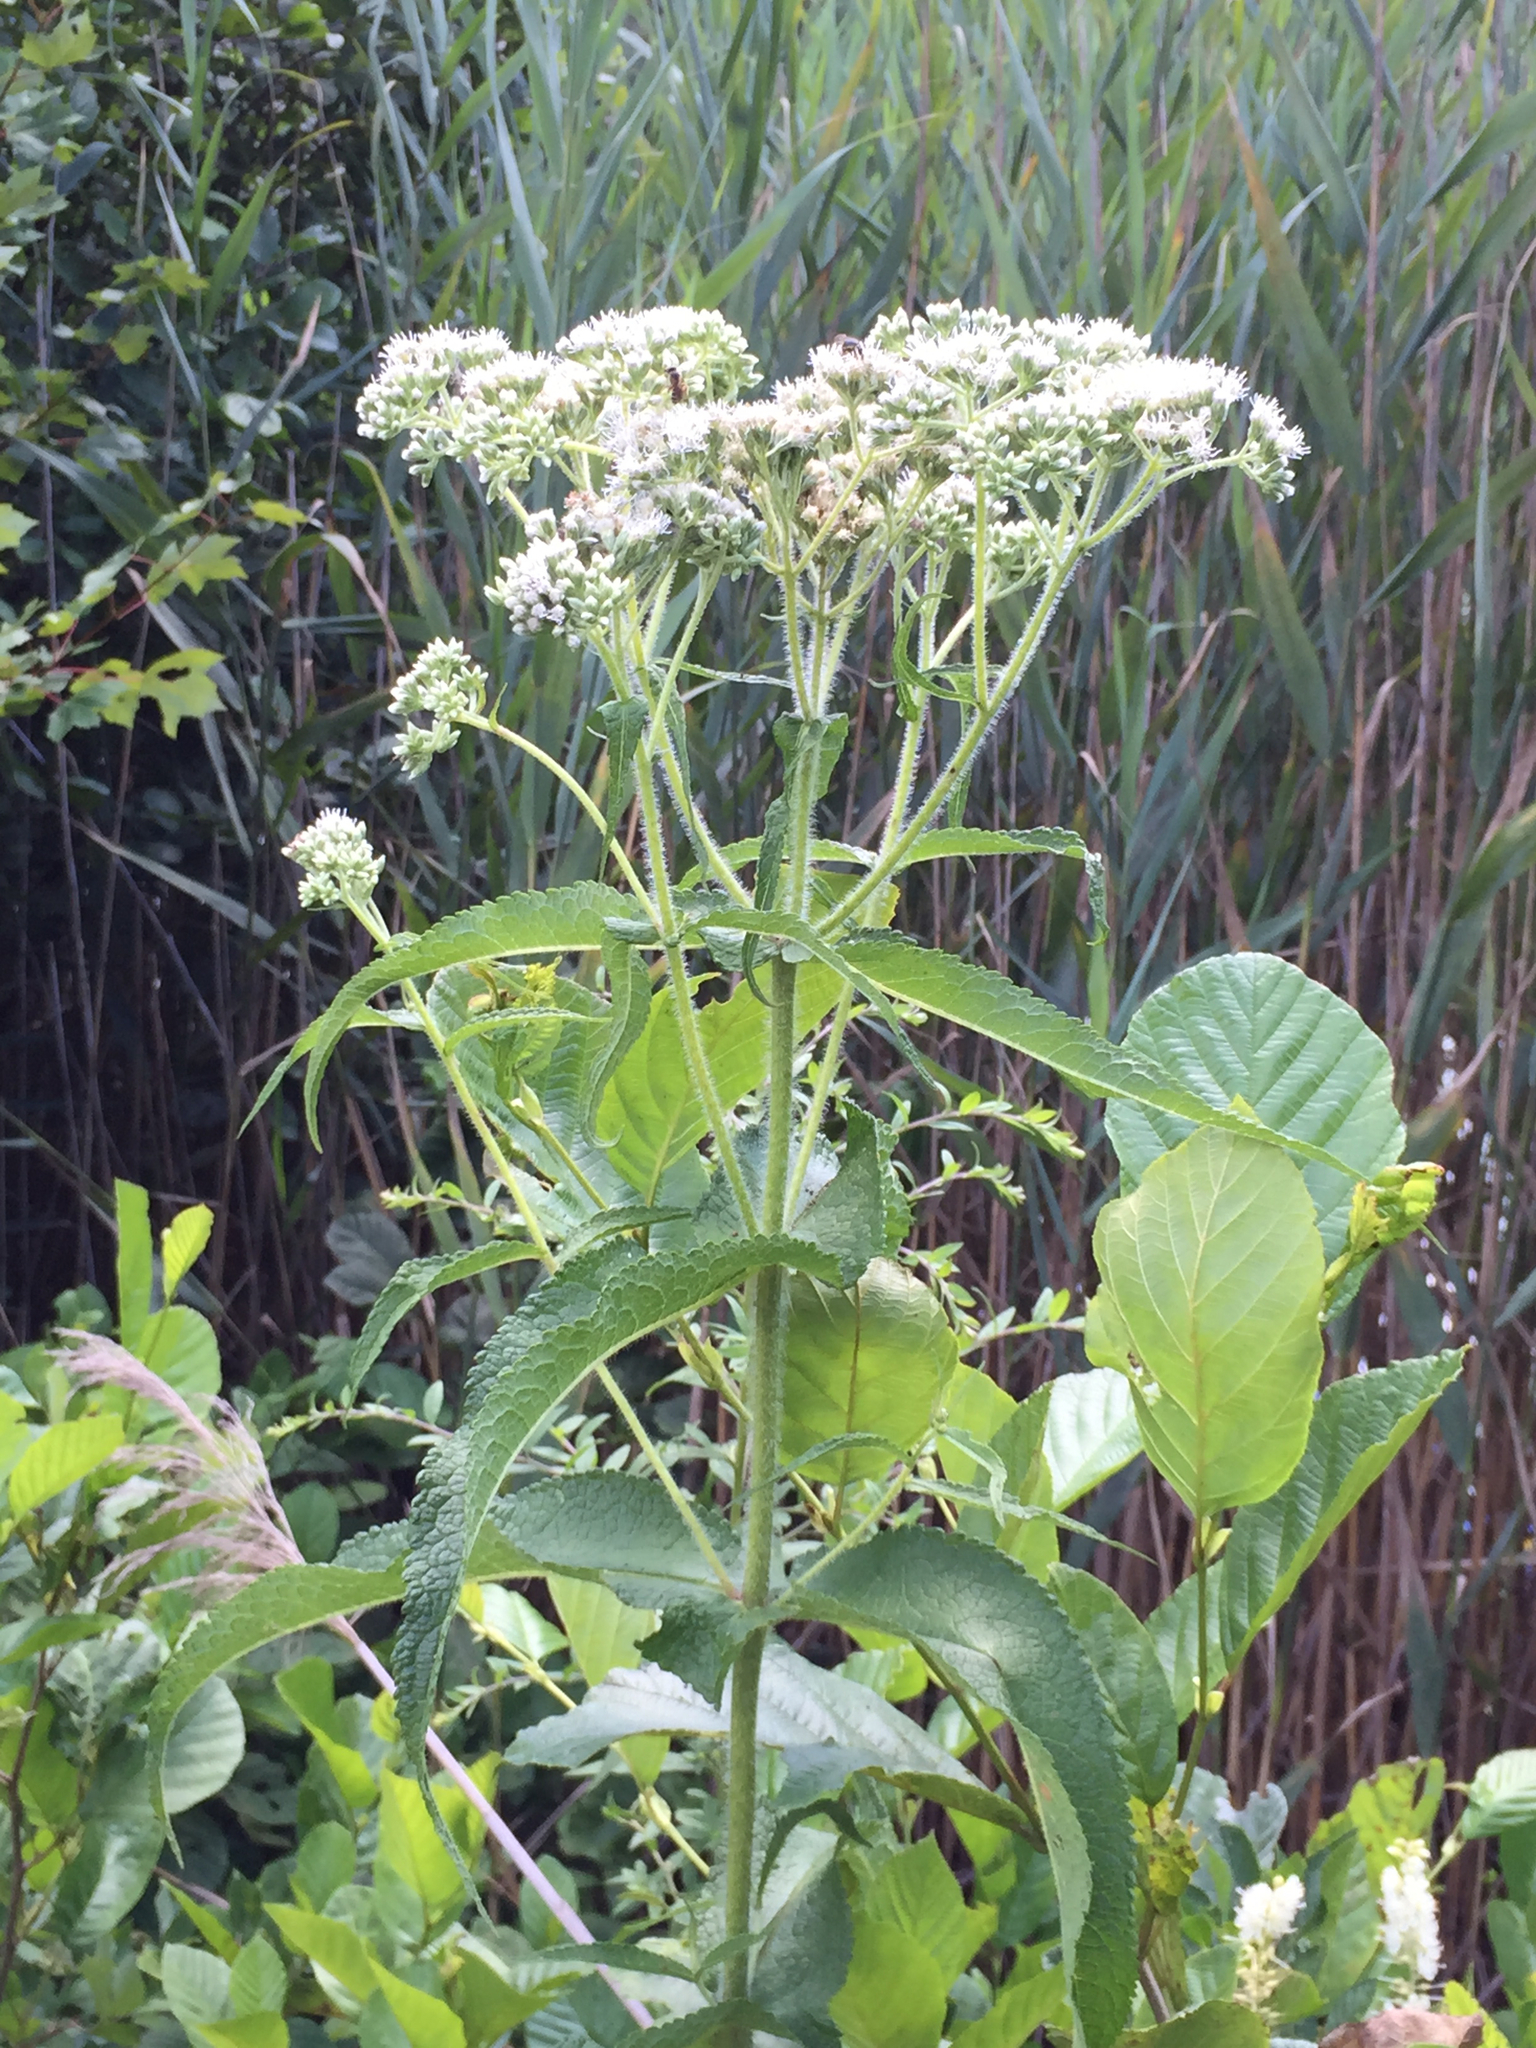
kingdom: Plantae
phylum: Tracheophyta
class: Magnoliopsida
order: Asterales
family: Asteraceae
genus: Eupatorium
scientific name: Eupatorium perfoliatum
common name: Boneset
